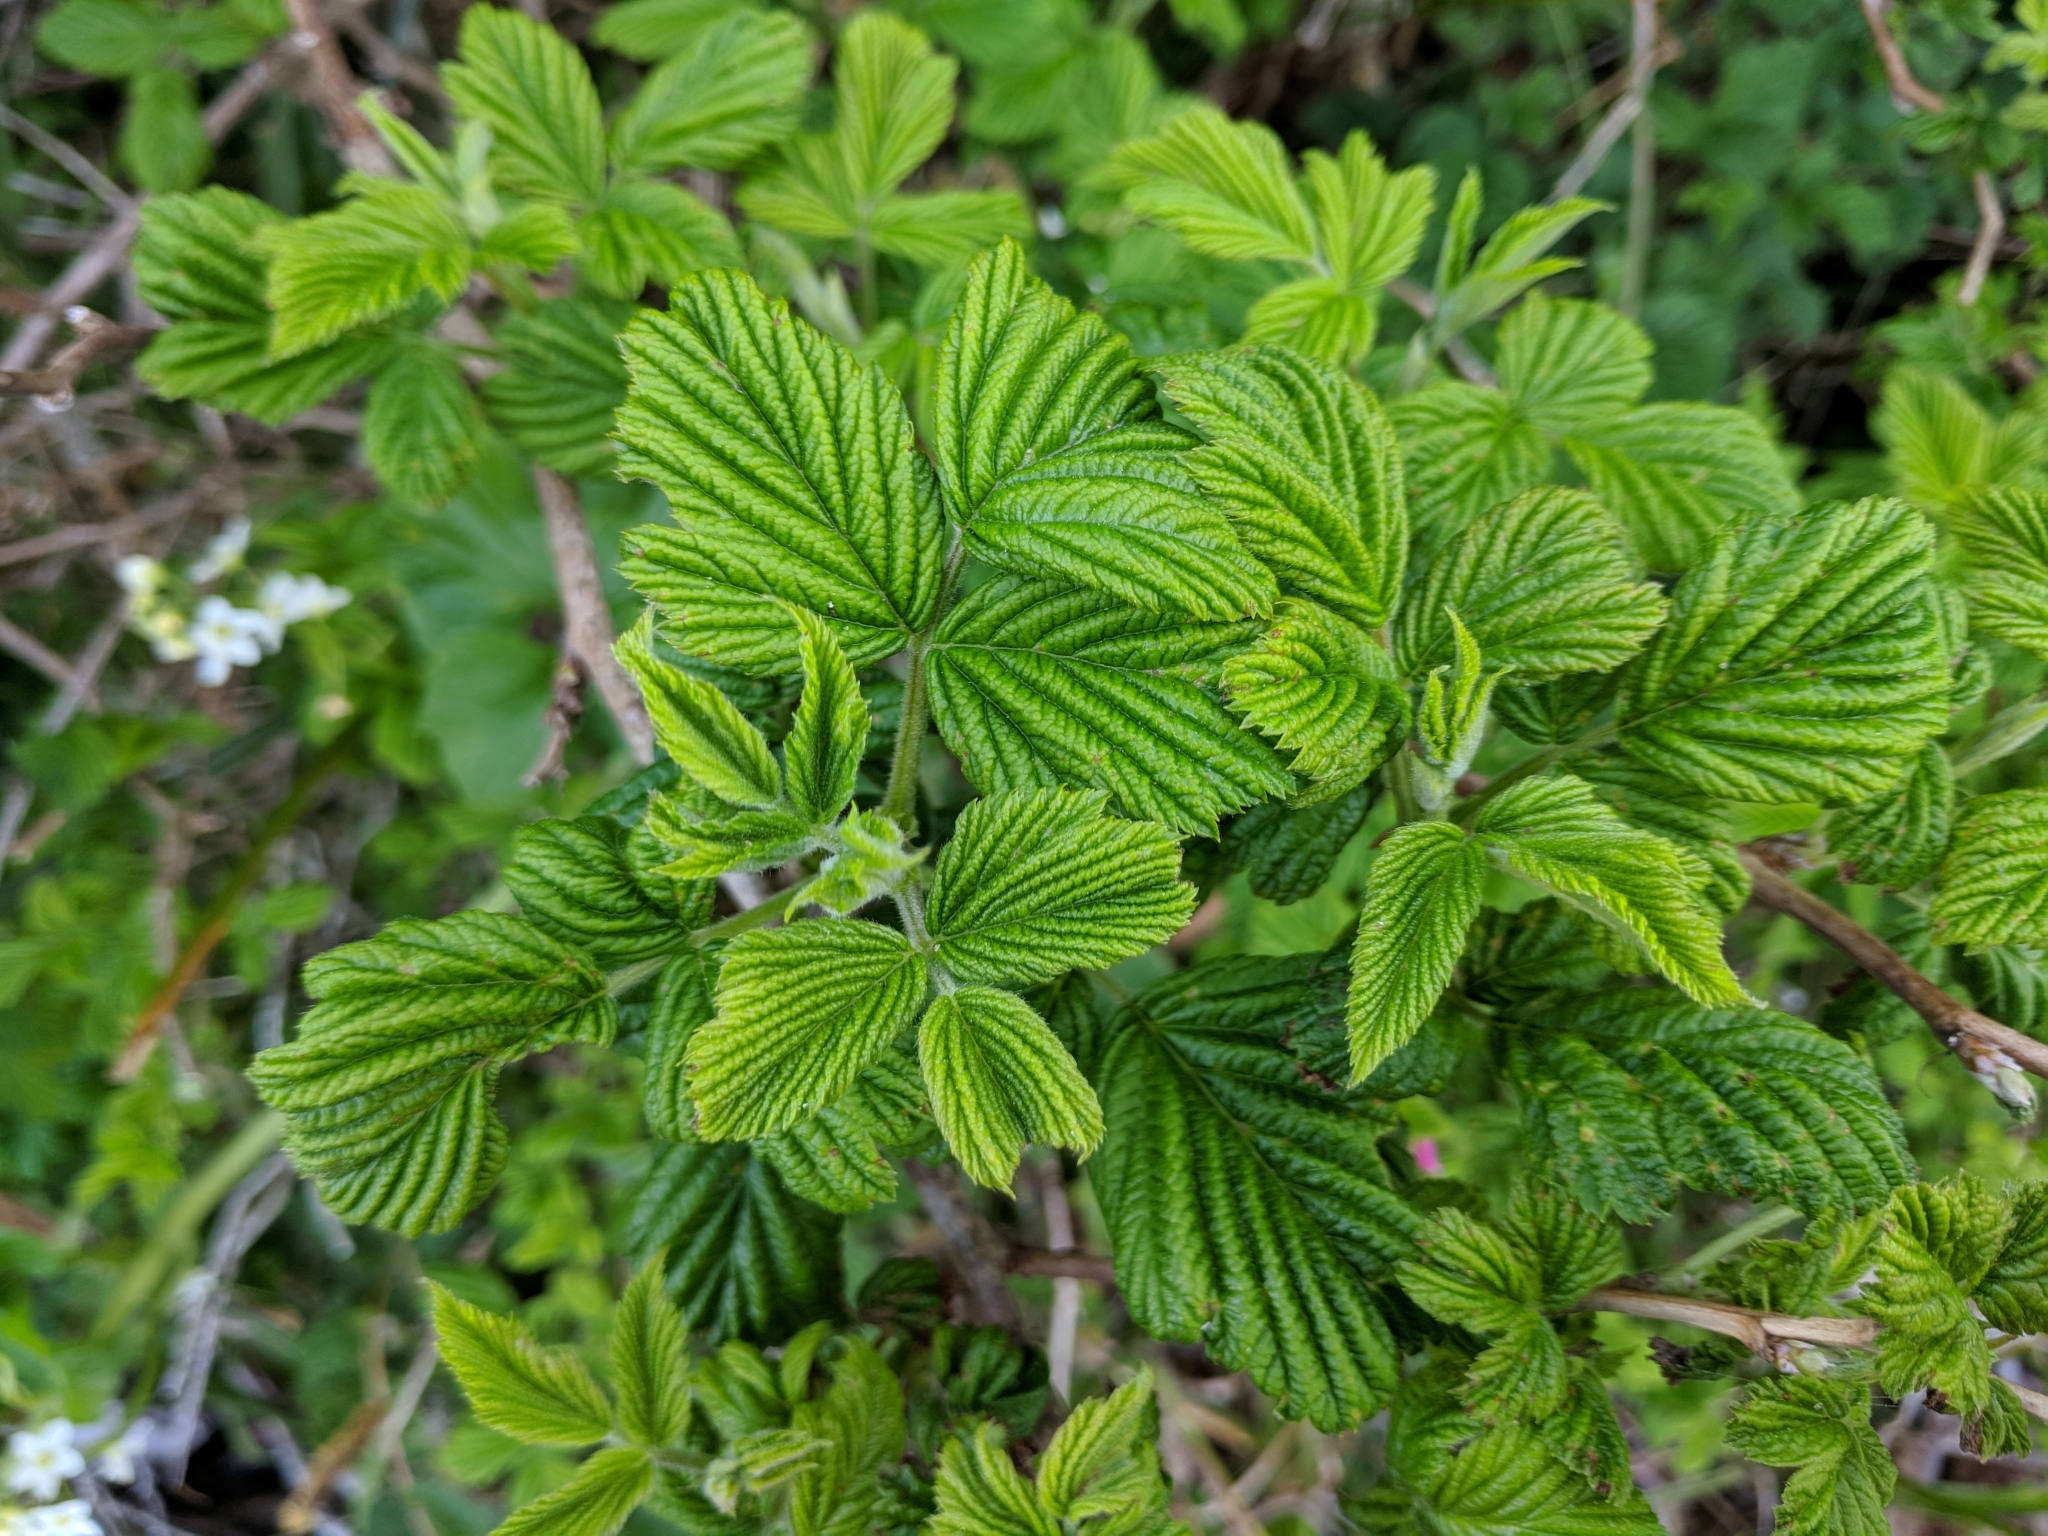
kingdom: Plantae
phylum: Tracheophyta
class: Magnoliopsida
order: Rosales
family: Rosaceae
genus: Rubus
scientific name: Rubus spectabilis
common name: Salmonberry
